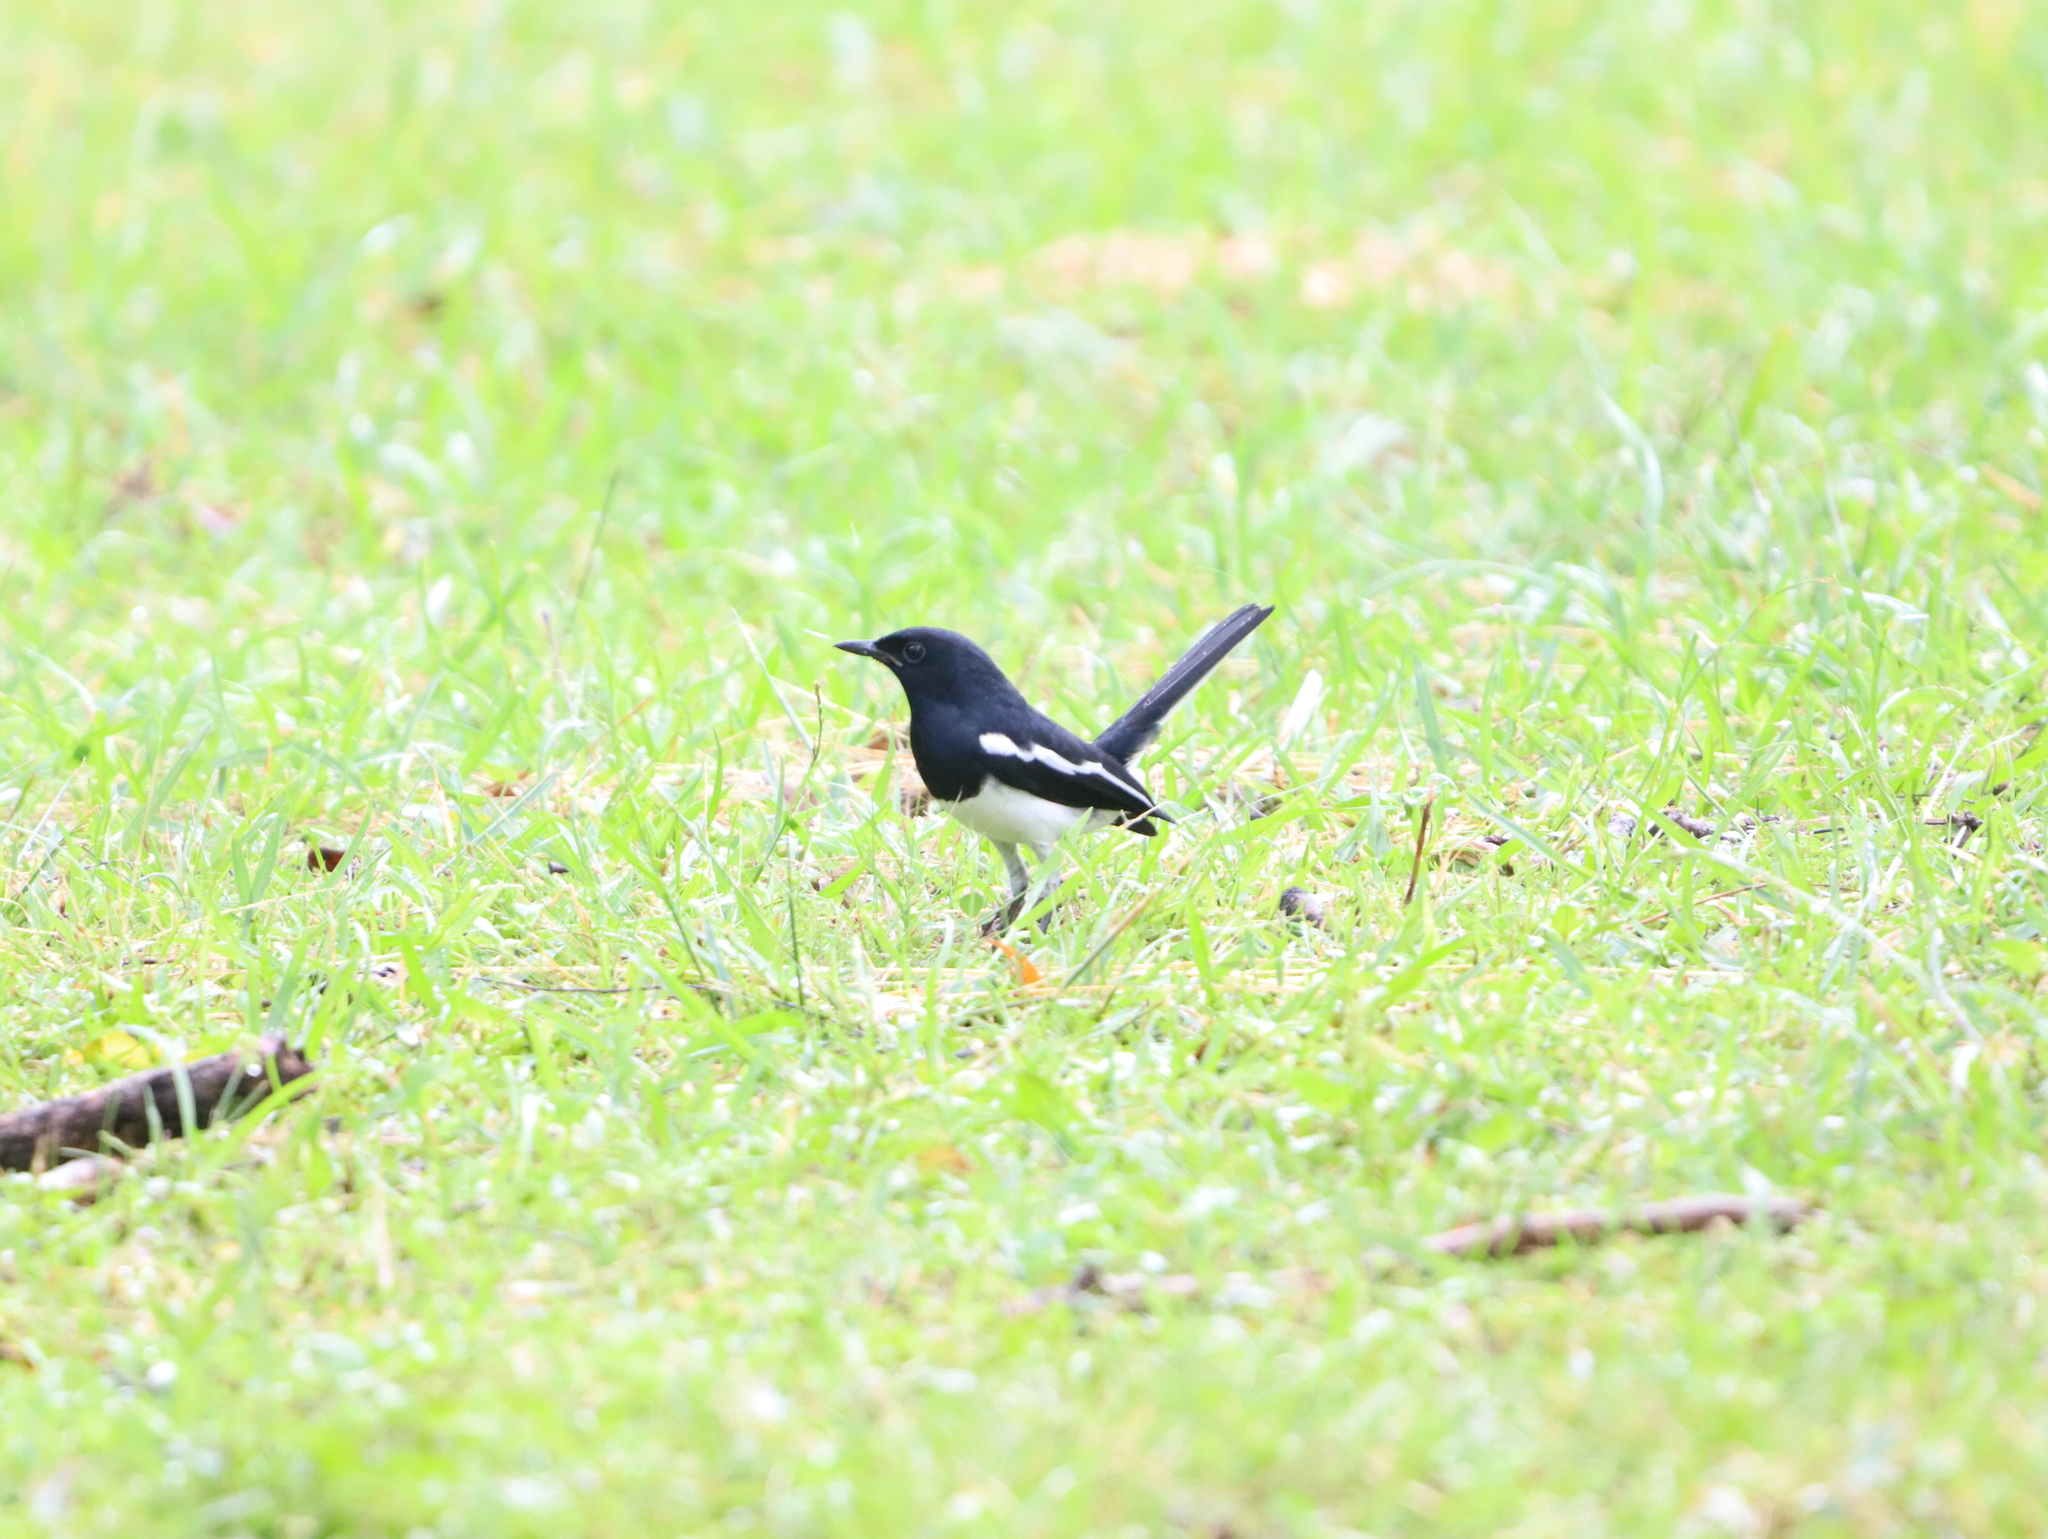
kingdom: Animalia
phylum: Chordata
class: Aves
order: Passeriformes
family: Muscicapidae
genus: Copsychus
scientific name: Copsychus saularis
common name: Oriental magpie-robin
